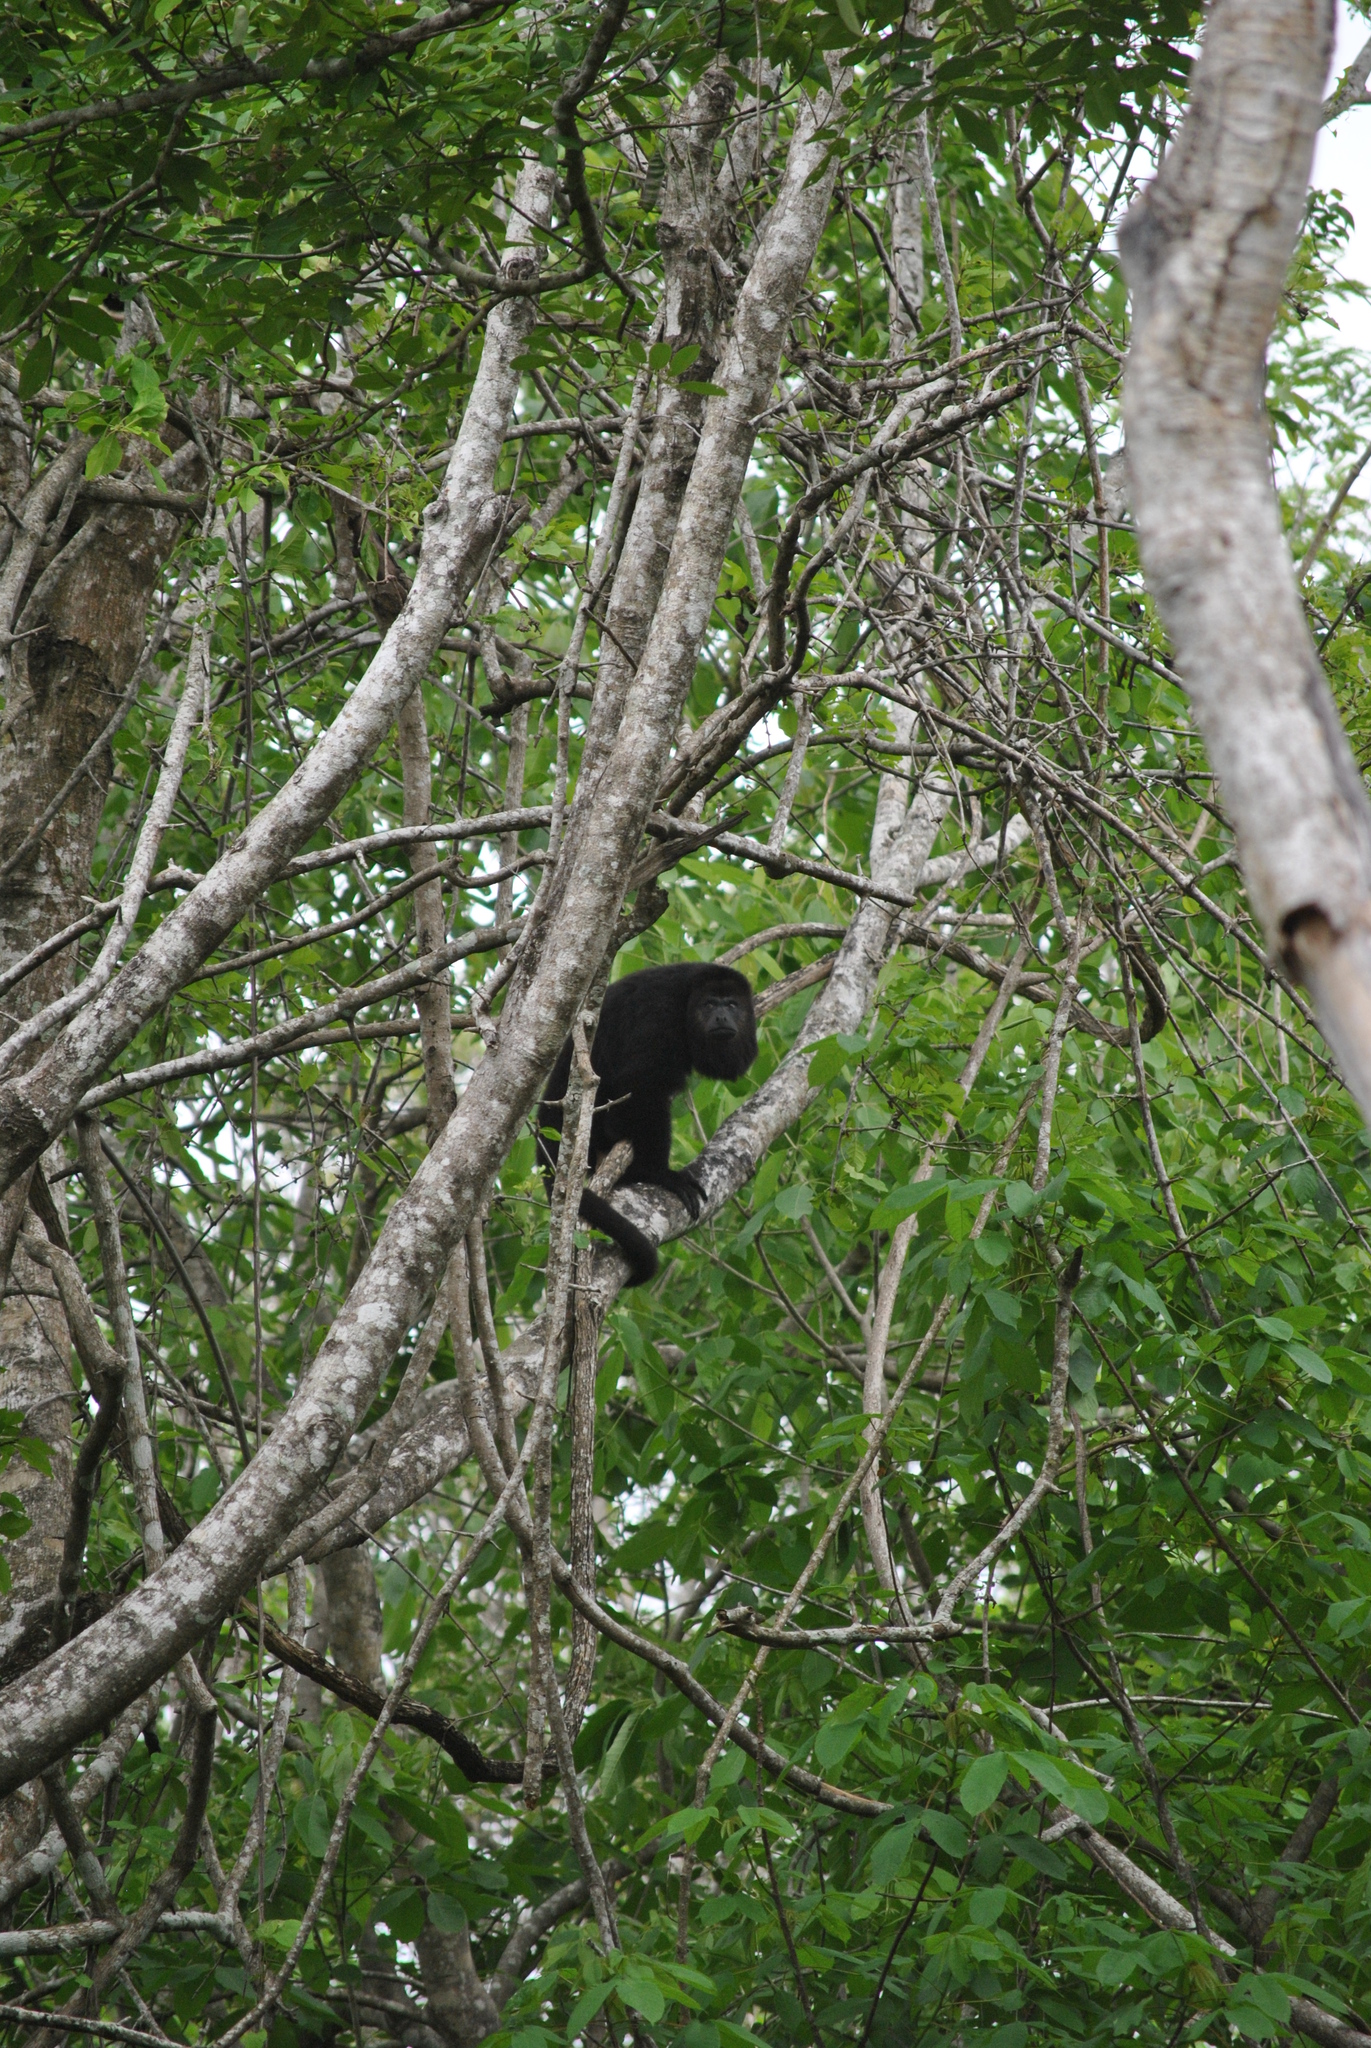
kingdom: Animalia
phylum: Chordata
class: Mammalia
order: Primates
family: Atelidae
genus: Alouatta
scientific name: Alouatta pigra
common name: Guatemalan black howler
